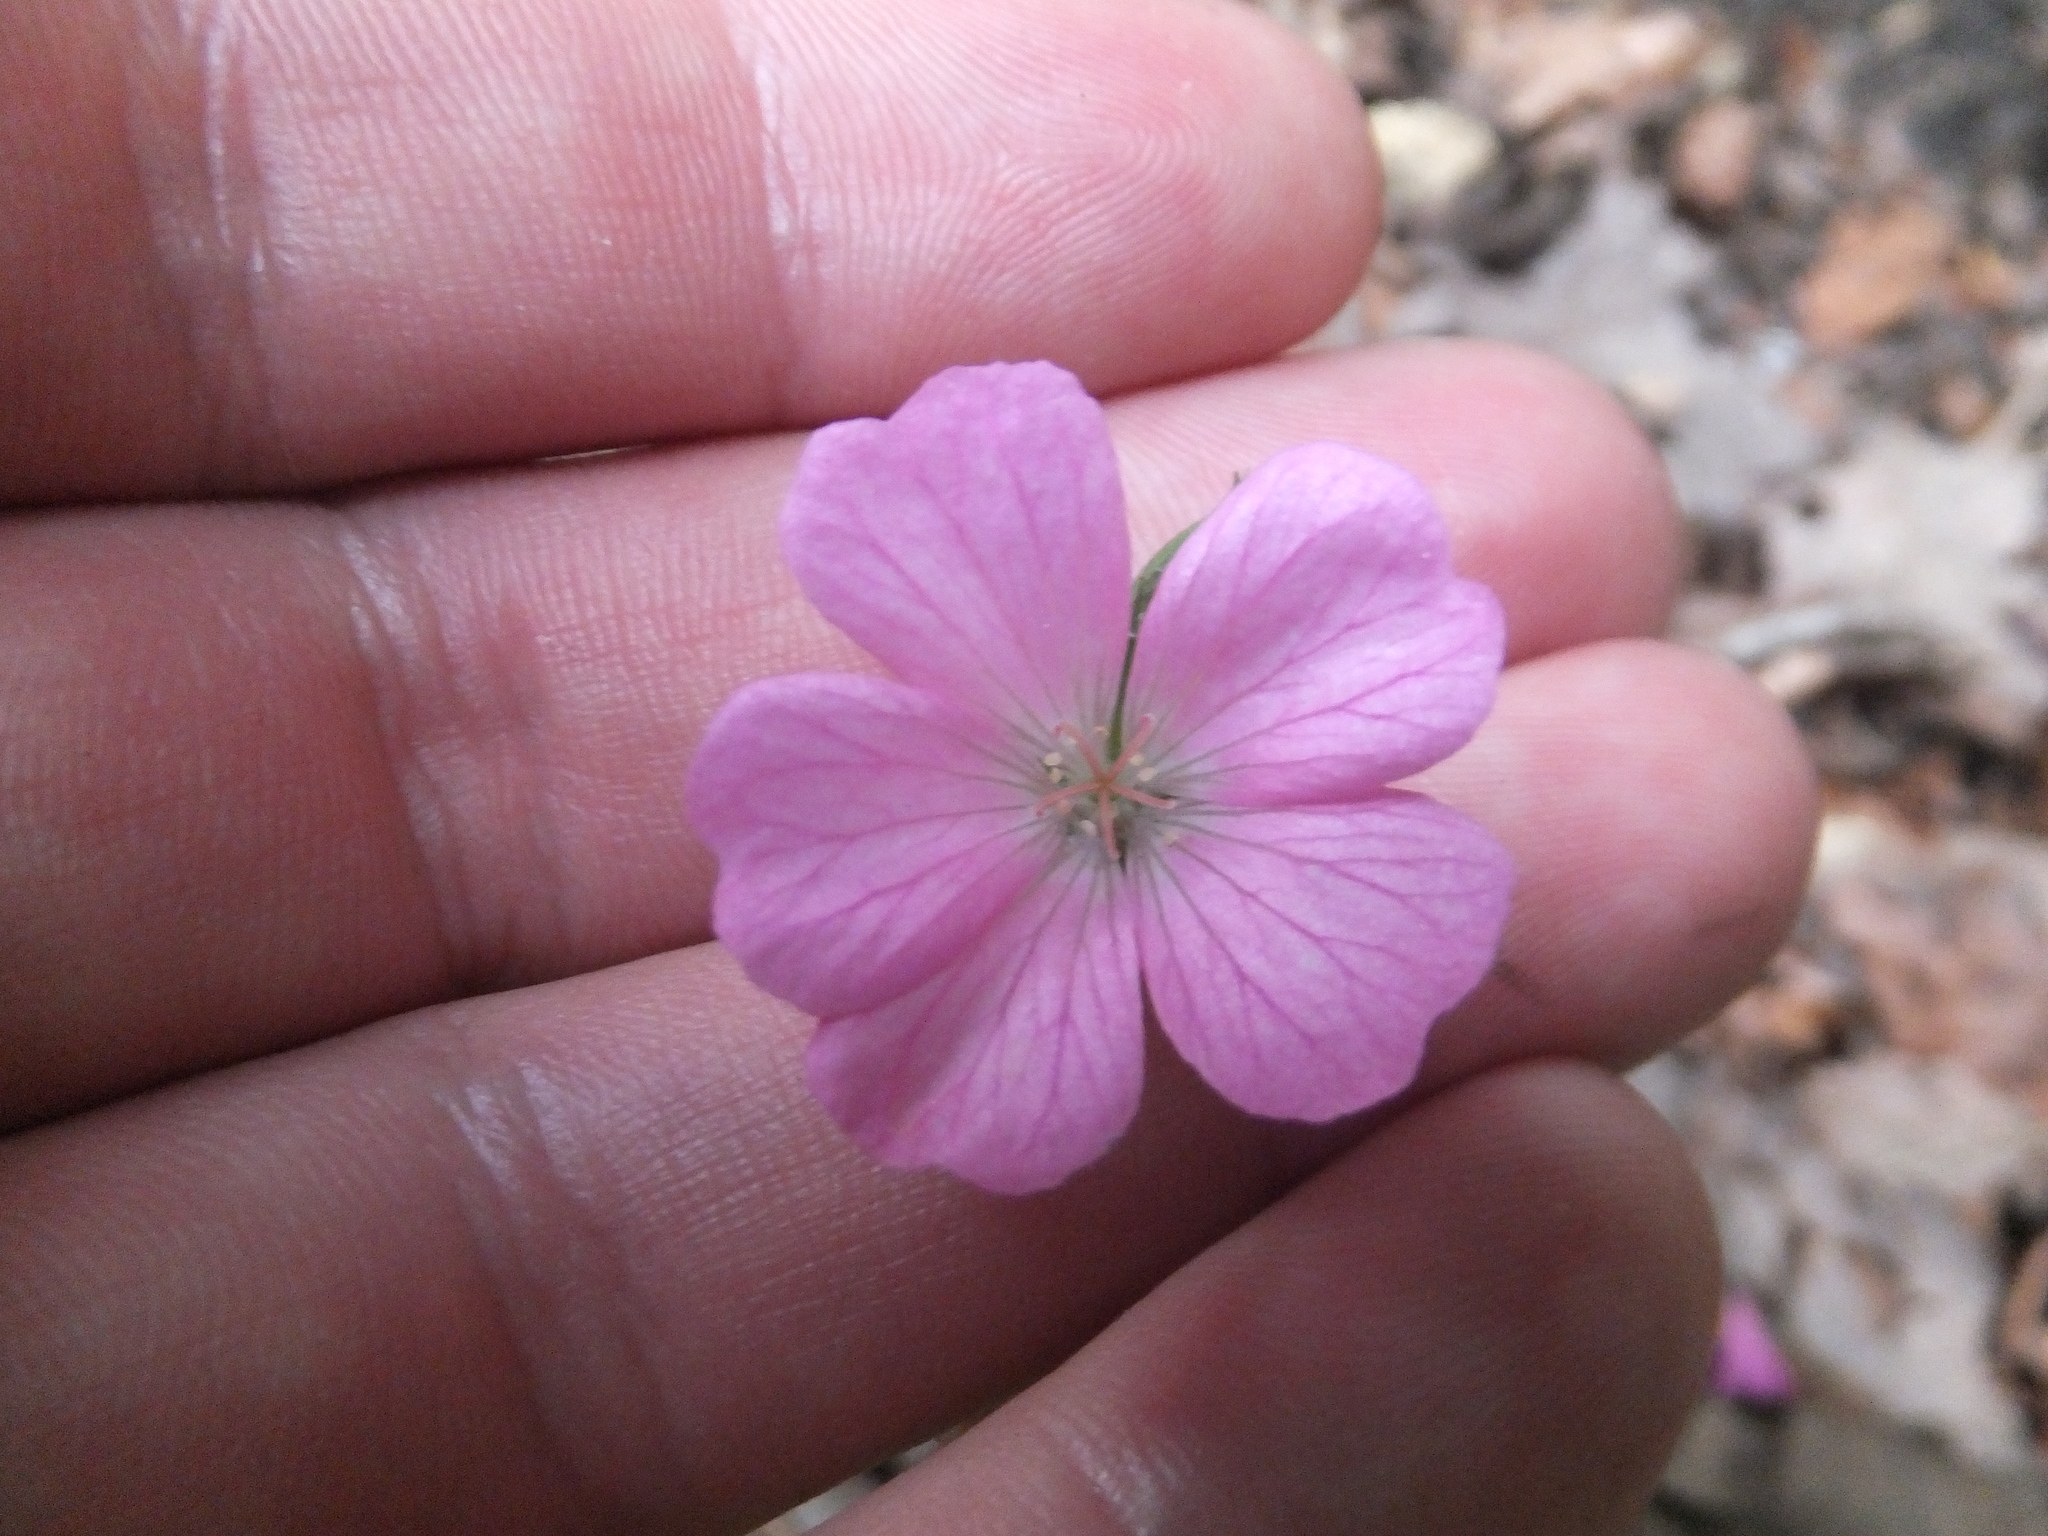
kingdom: Plantae
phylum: Tracheophyta
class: Magnoliopsida
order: Geraniales
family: Geraniaceae
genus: Geranium
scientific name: Geranium sanguineum
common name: Bloody crane's-bill
